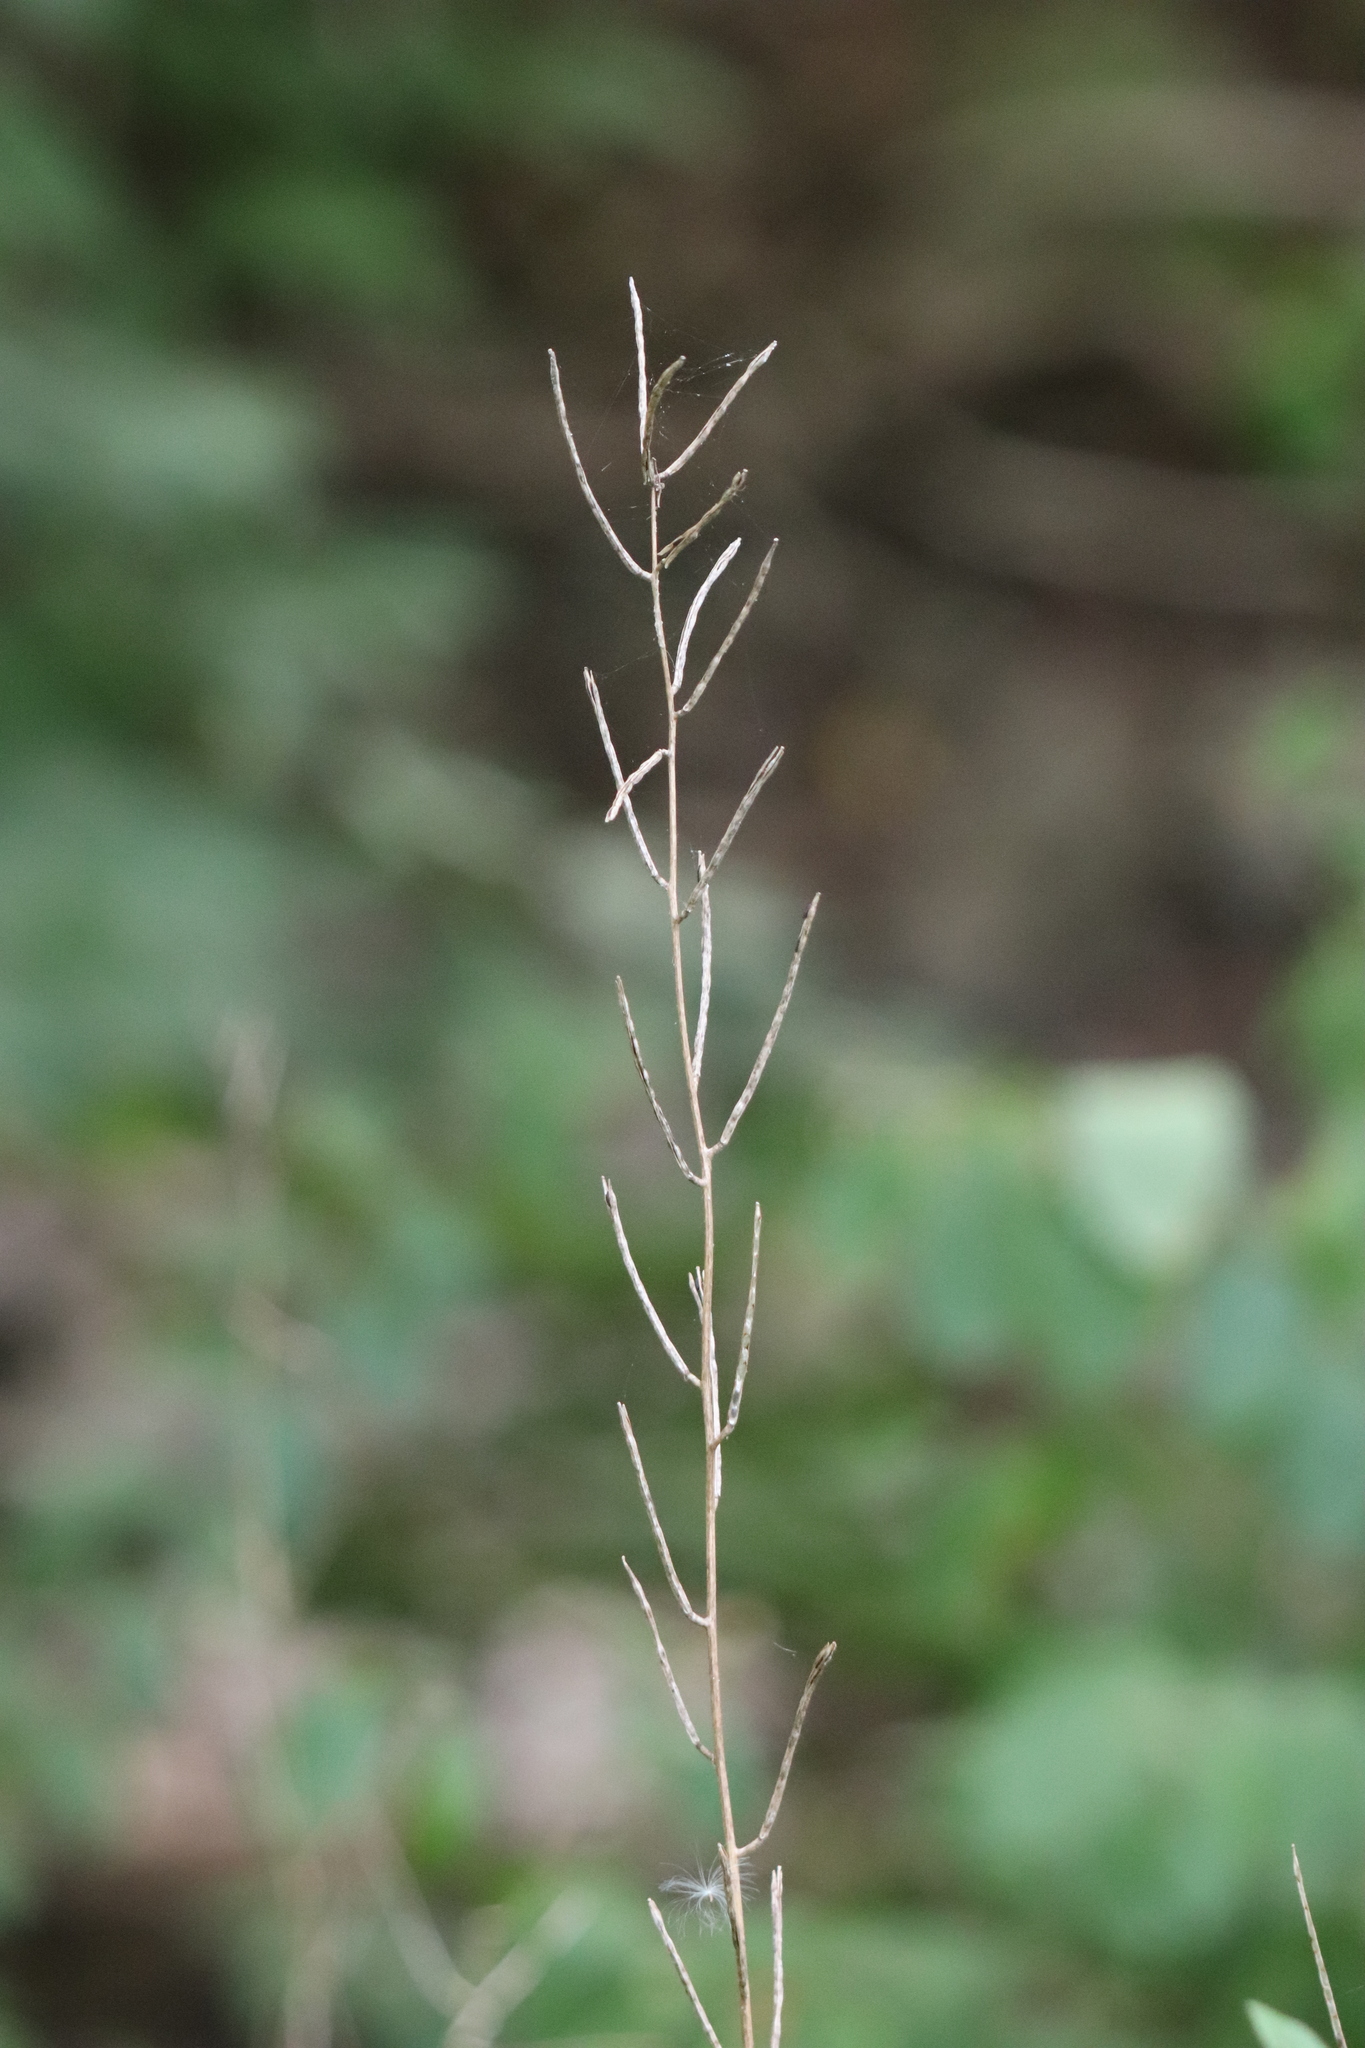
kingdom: Plantae
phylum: Tracheophyta
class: Magnoliopsida
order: Brassicales
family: Brassicaceae
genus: Alliaria
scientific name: Alliaria petiolata
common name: Garlic mustard
